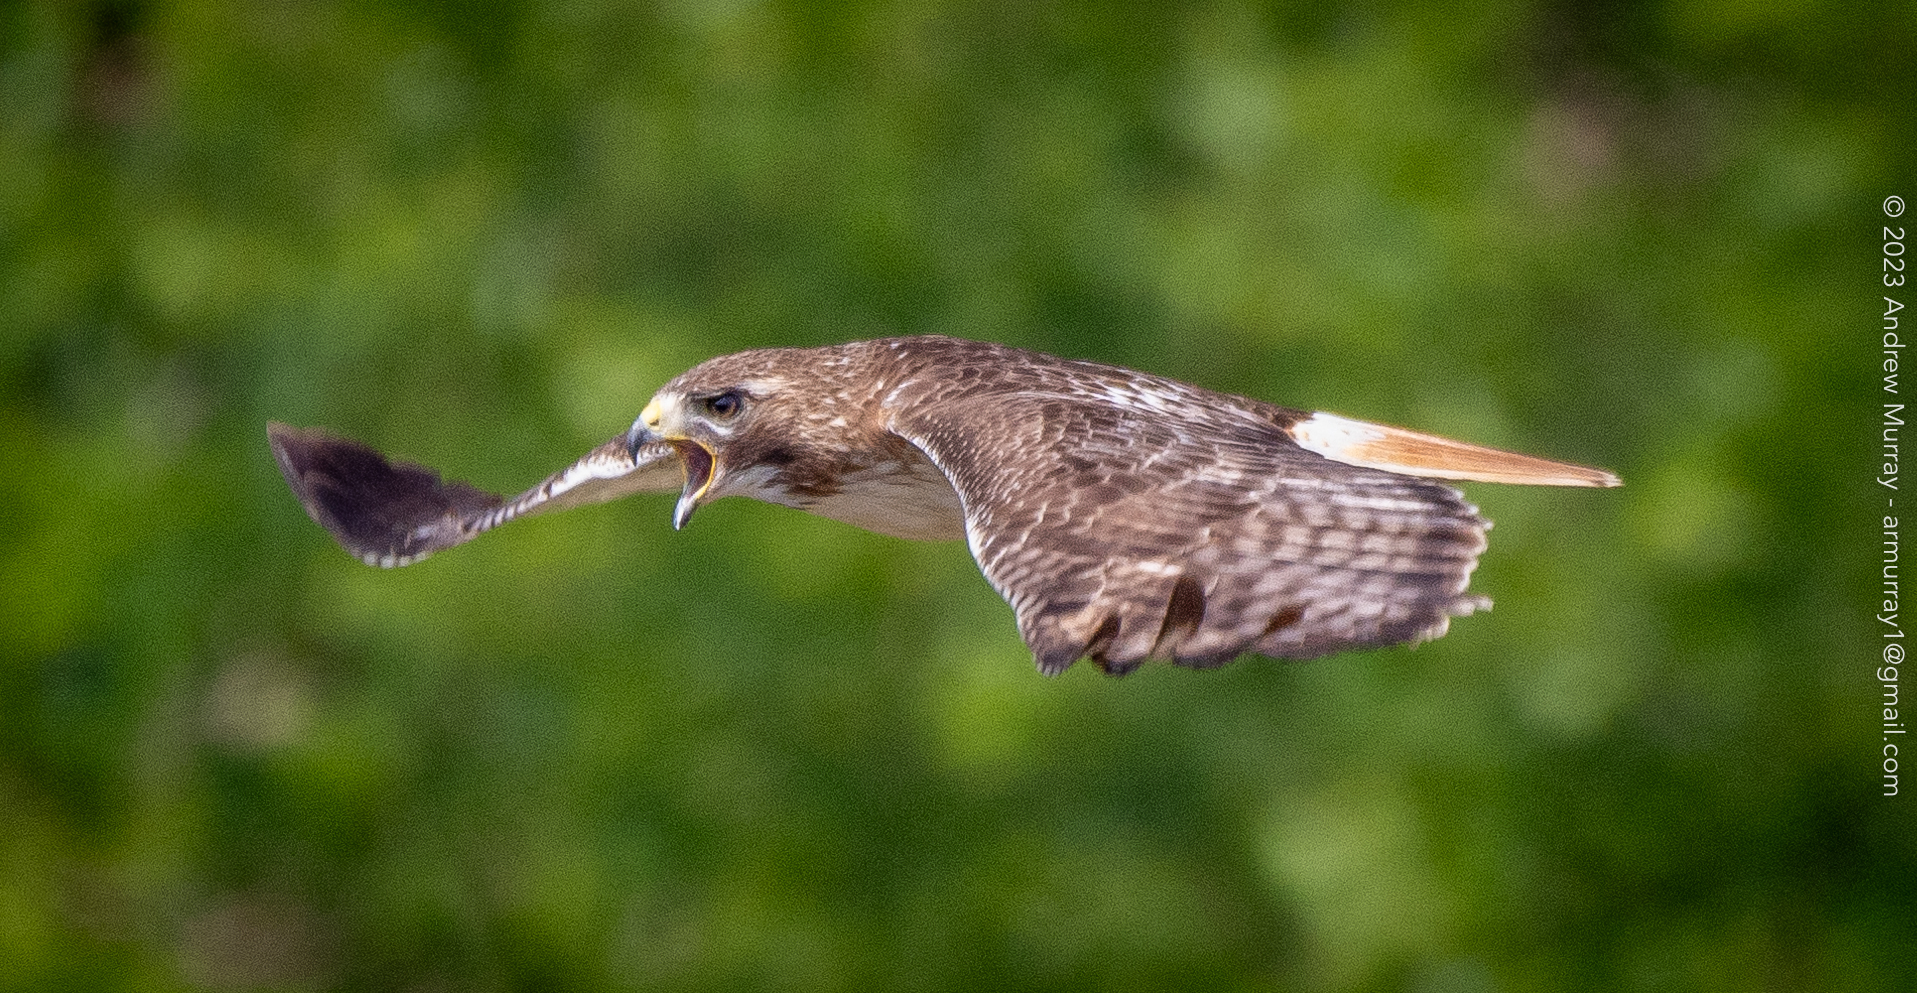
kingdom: Animalia
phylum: Chordata
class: Aves
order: Accipitriformes
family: Accipitridae
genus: Buteo
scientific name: Buteo jamaicensis
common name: Red-tailed hawk
